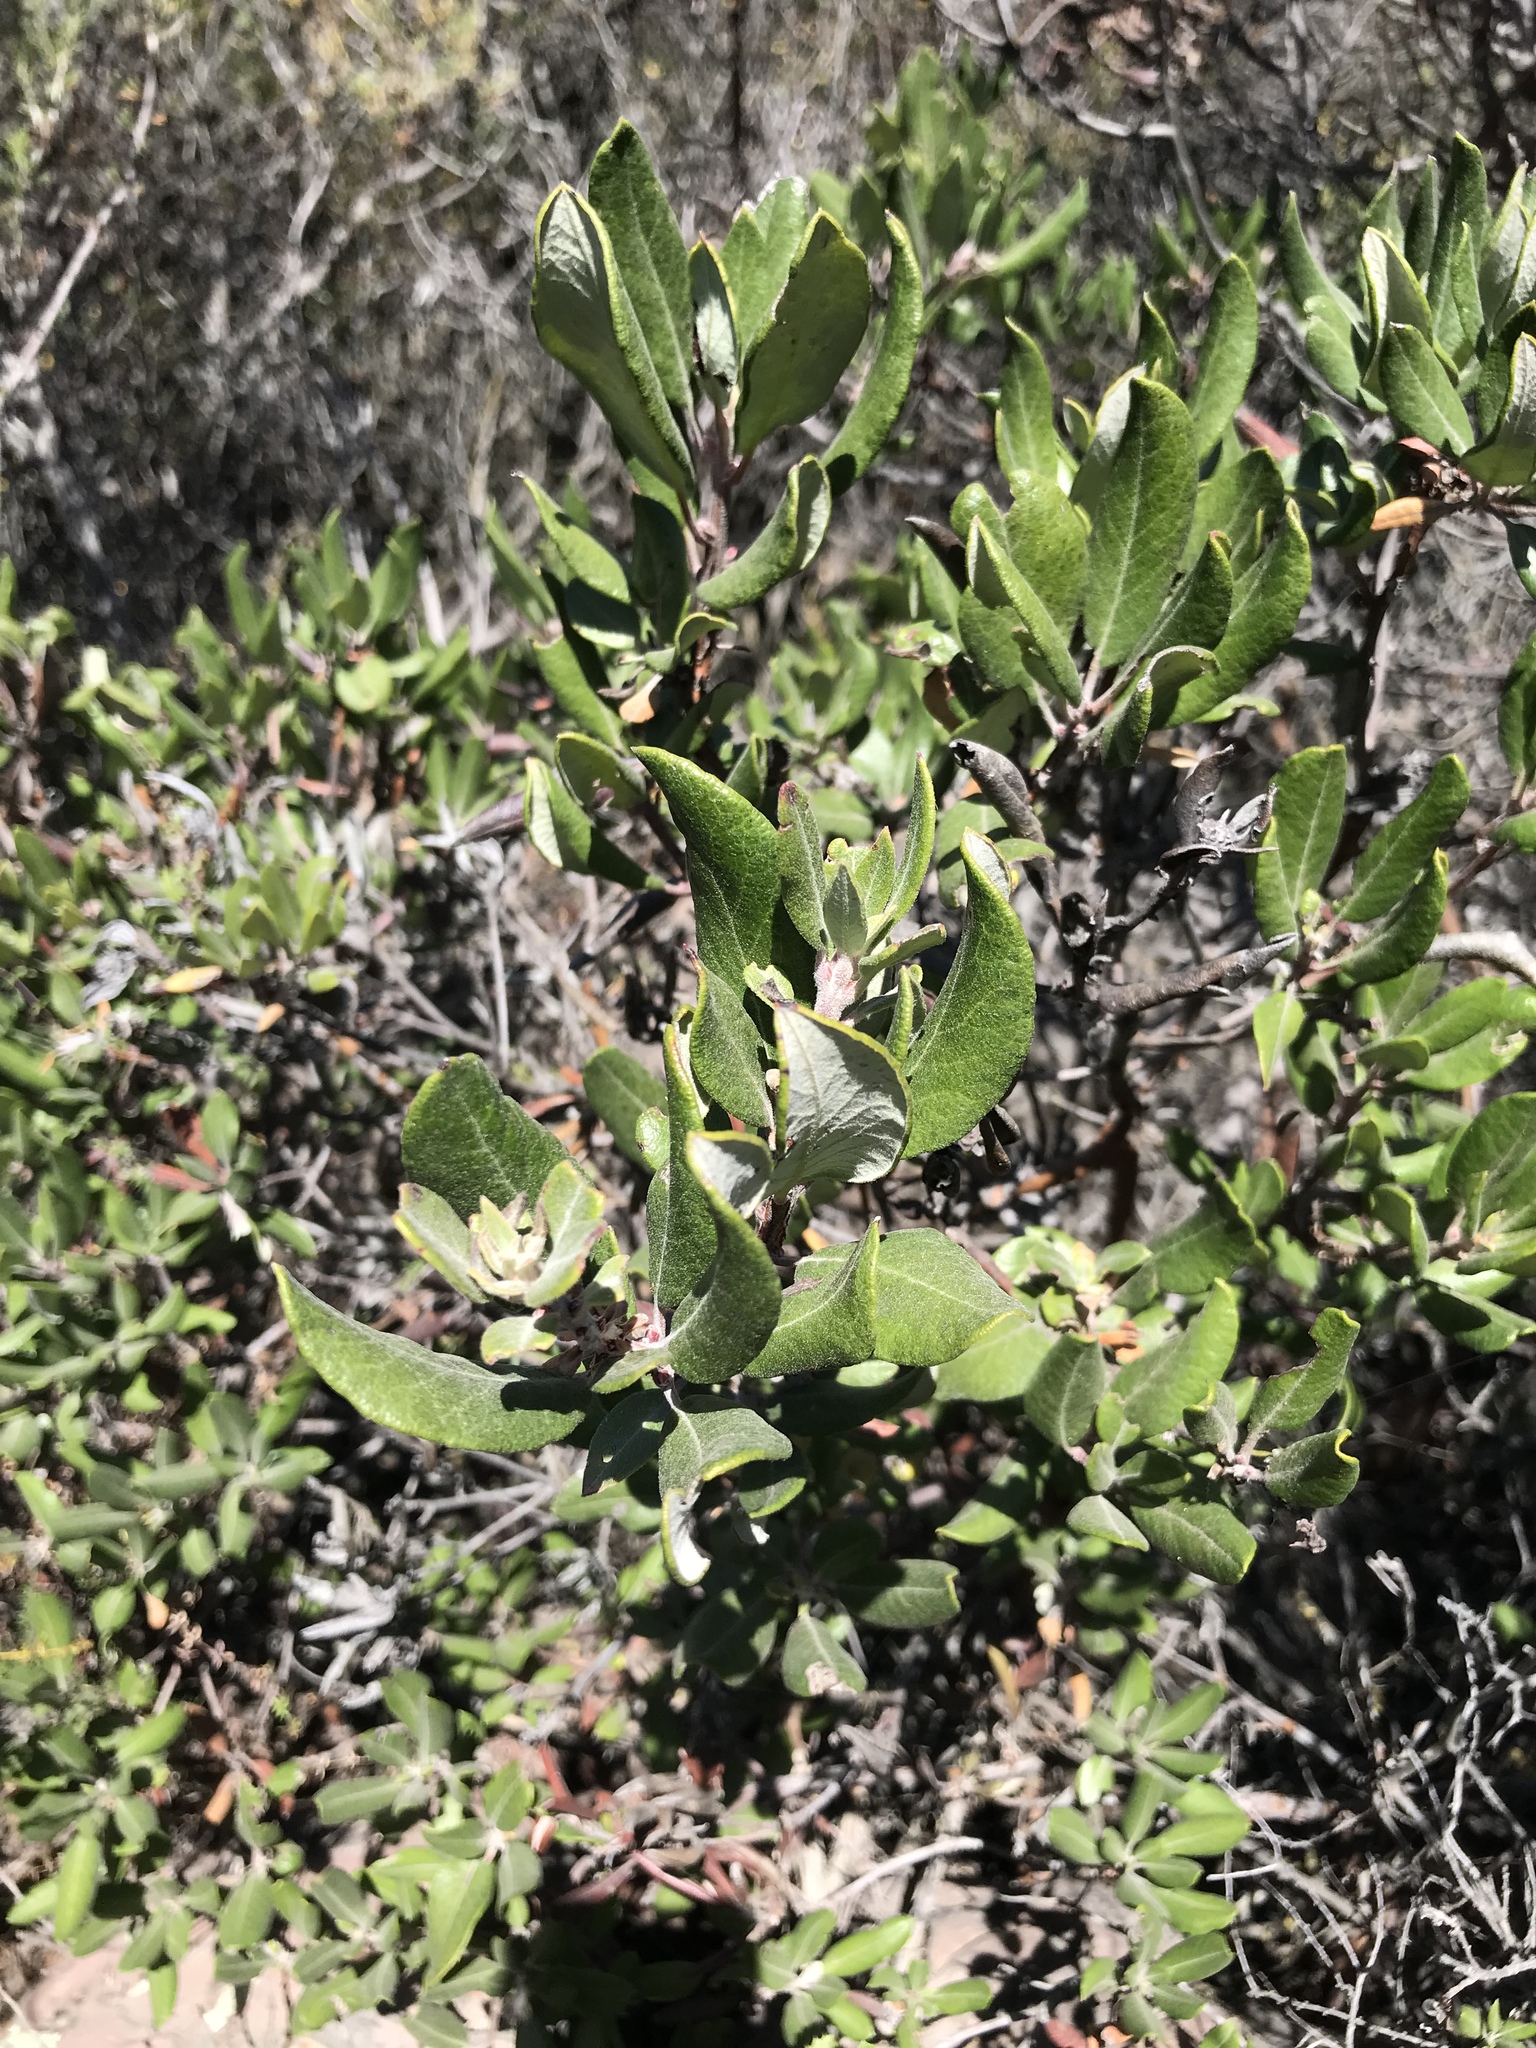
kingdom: Plantae
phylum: Tracheophyta
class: Magnoliopsida
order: Ericales
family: Ericaceae
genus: Arctostaphylos
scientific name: Arctostaphylos bicolor
